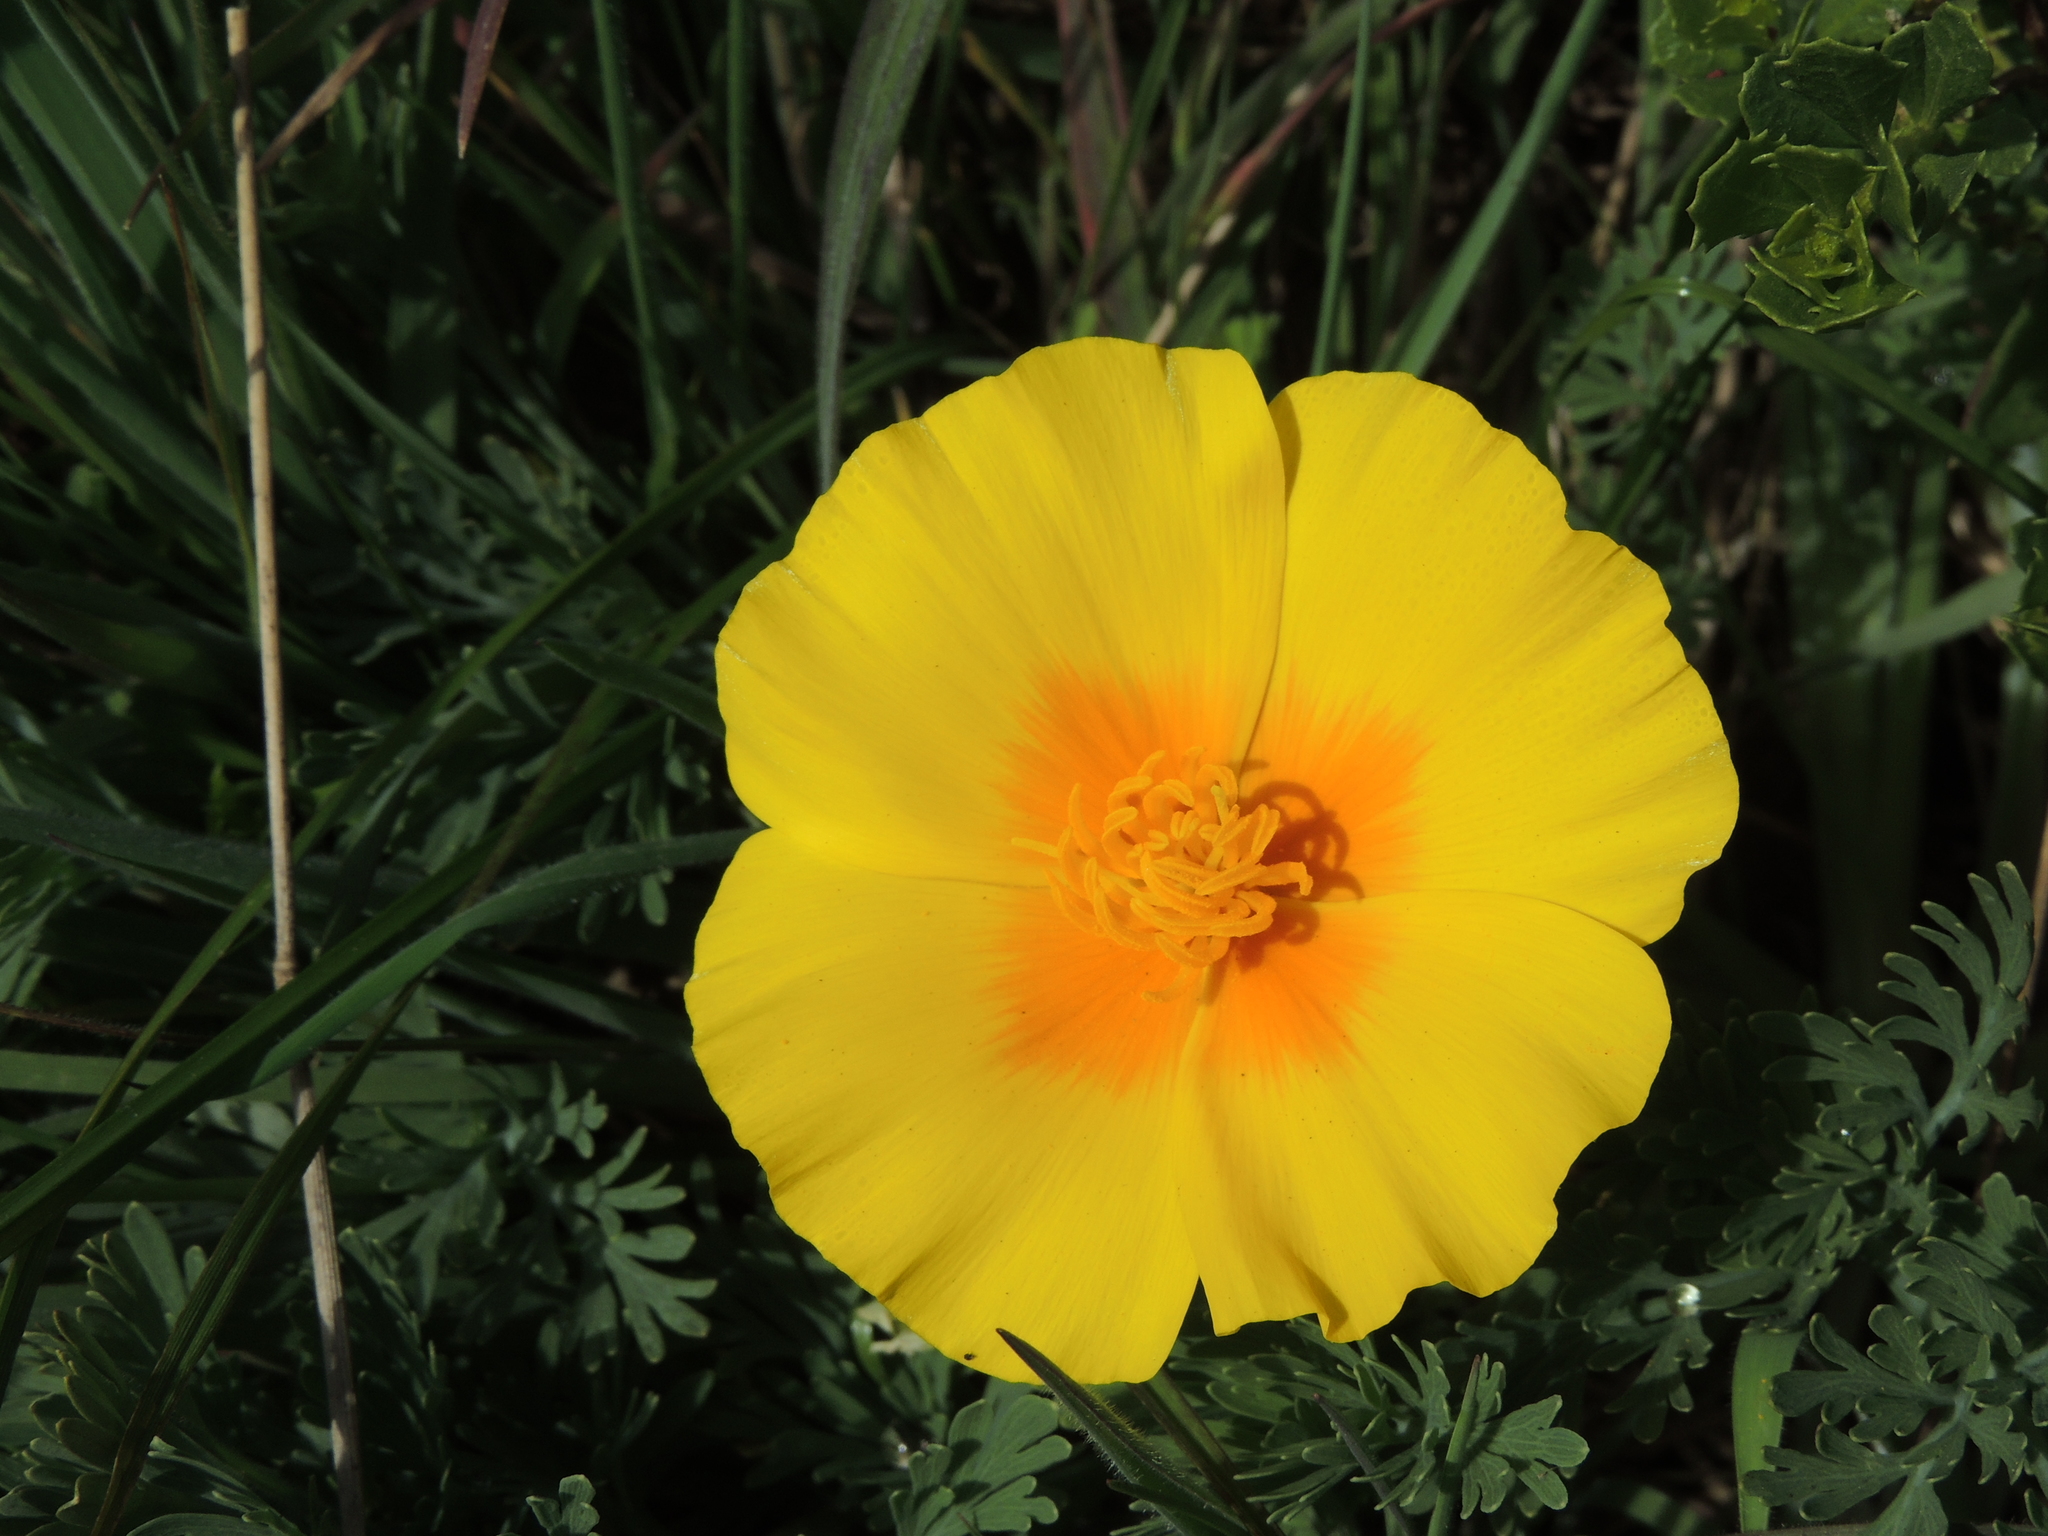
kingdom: Plantae
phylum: Tracheophyta
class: Magnoliopsida
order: Ranunculales
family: Papaveraceae
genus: Eschscholzia
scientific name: Eschscholzia californica
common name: California poppy
